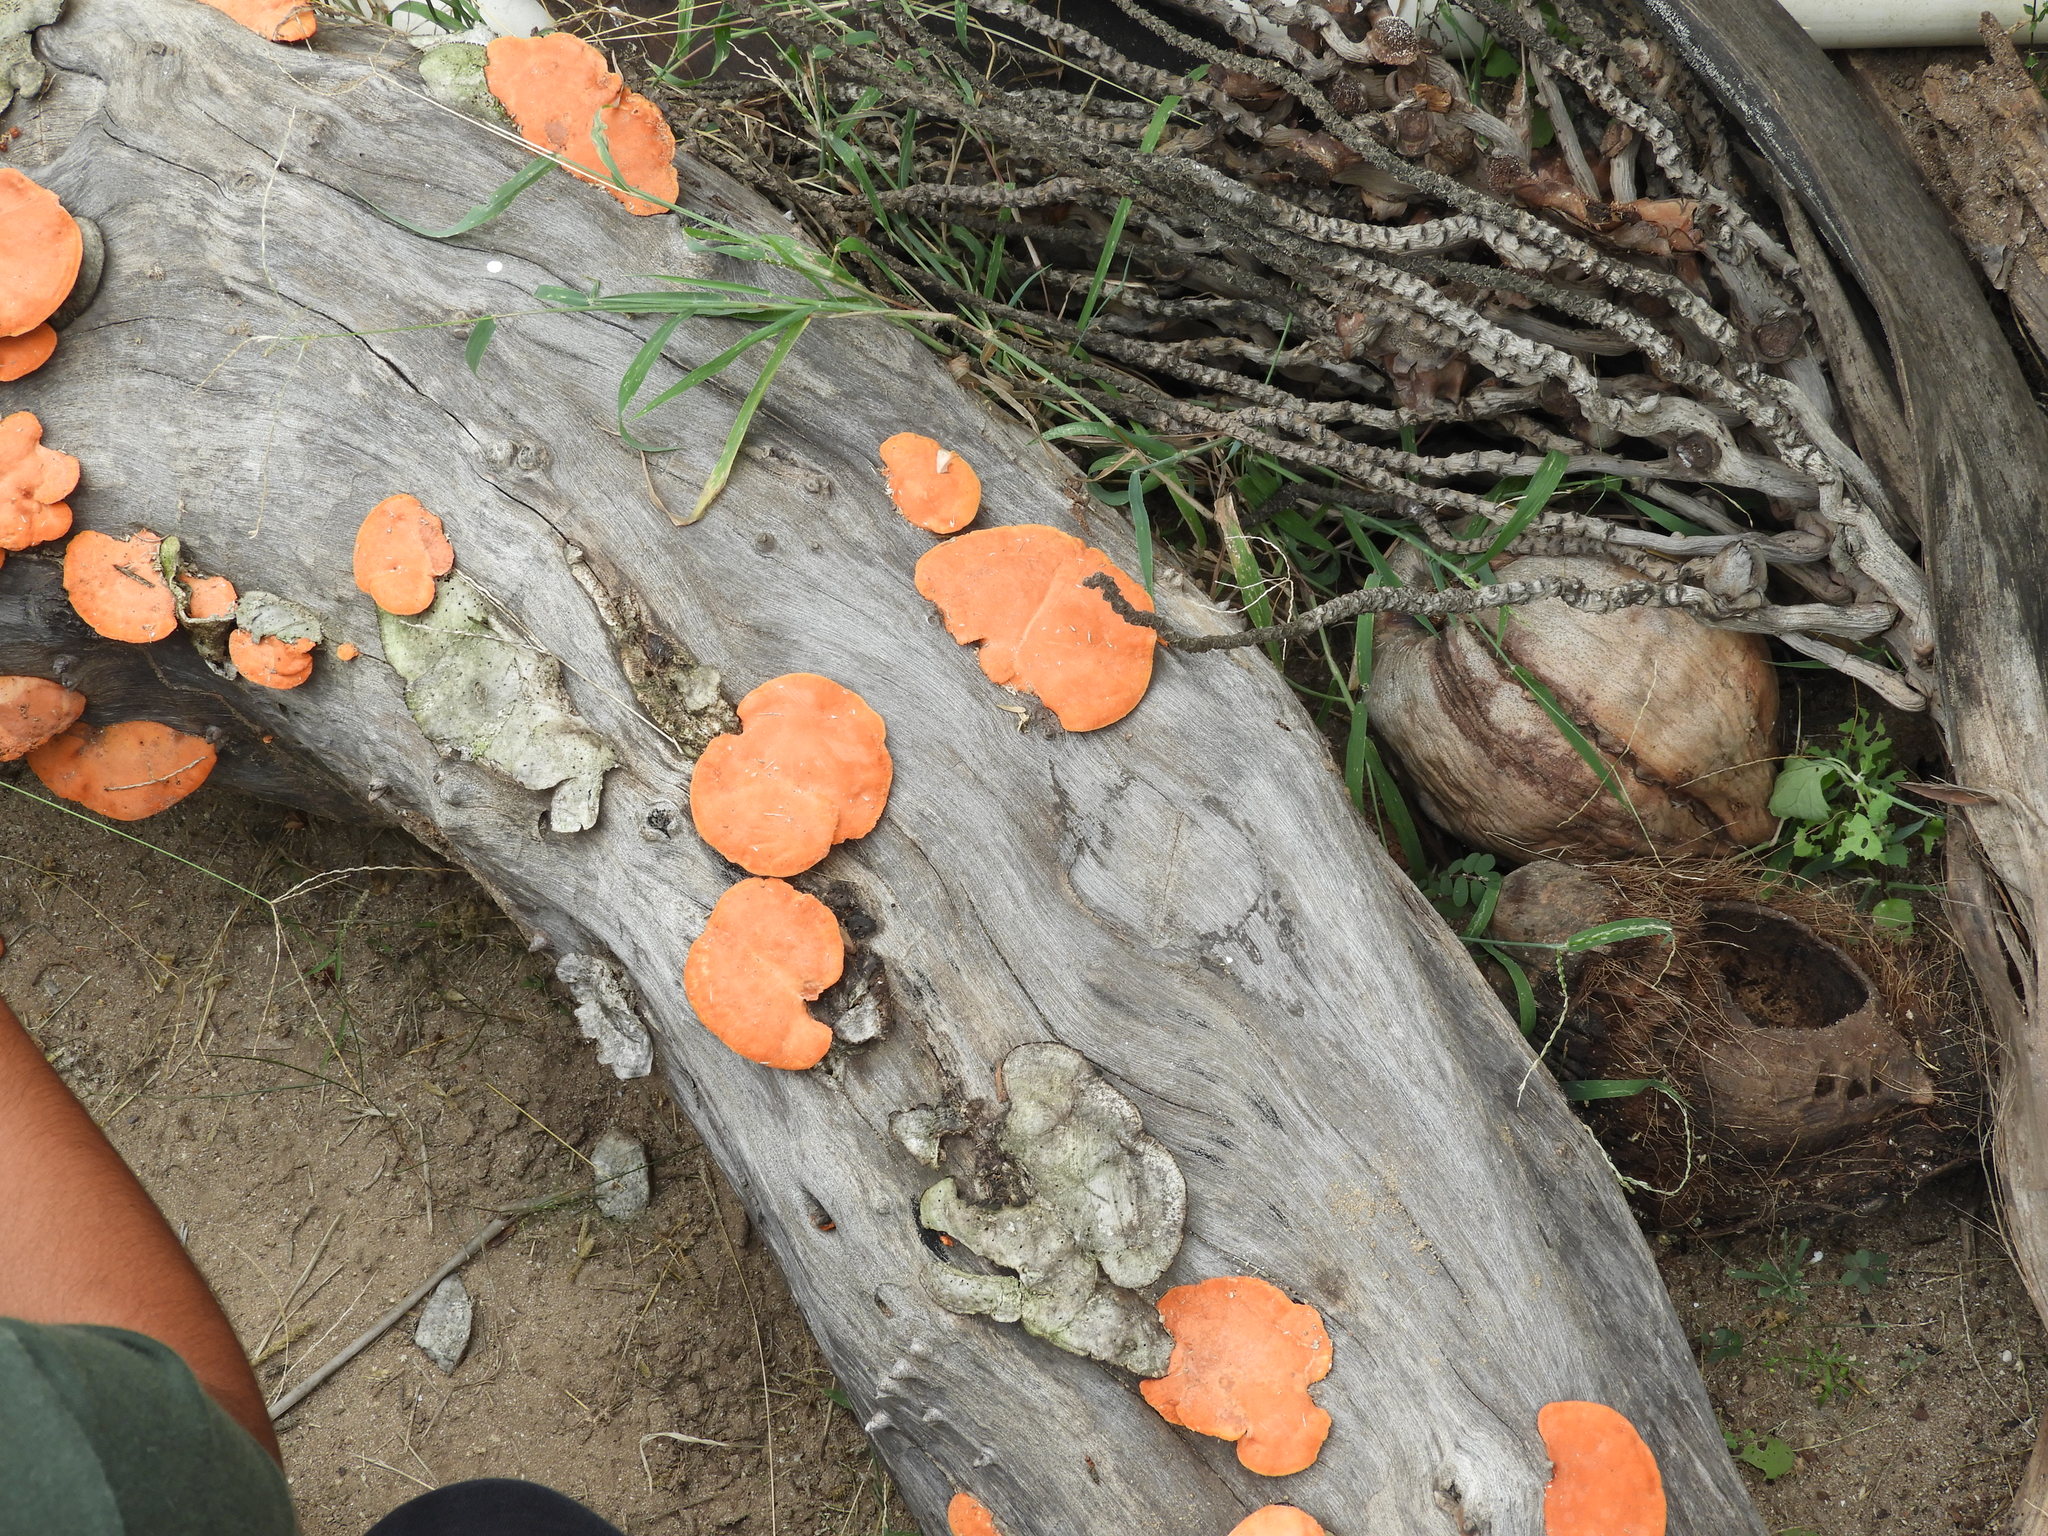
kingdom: Fungi
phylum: Basidiomycota
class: Agaricomycetes
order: Polyporales
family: Polyporaceae
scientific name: Polyporaceae
